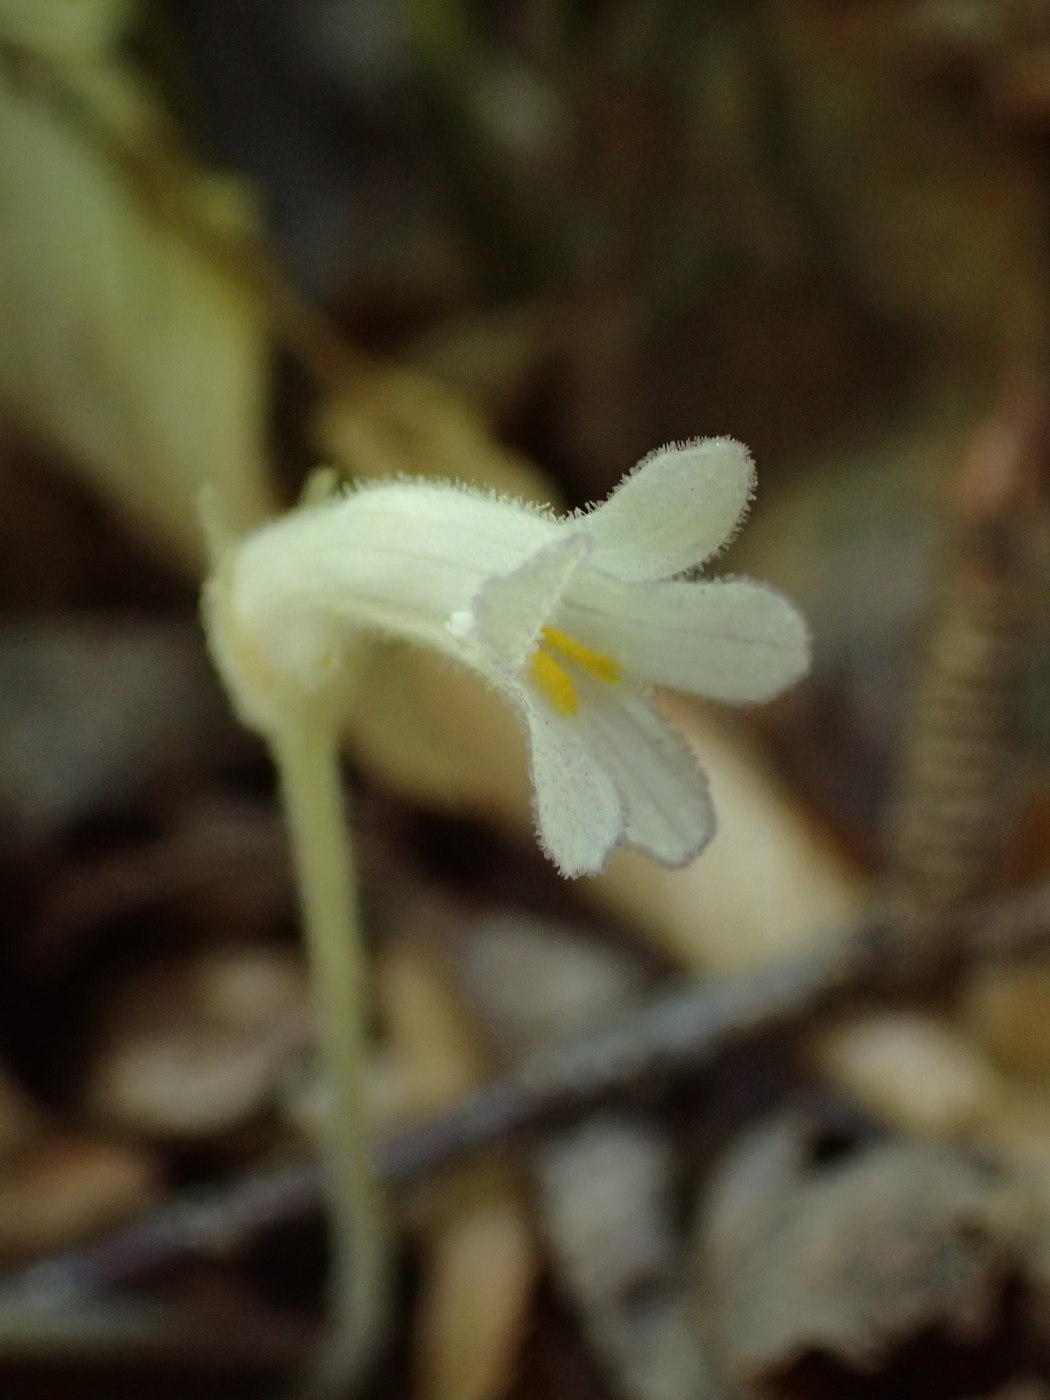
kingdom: Plantae
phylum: Tracheophyta
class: Magnoliopsida
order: Lamiales
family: Orobanchaceae
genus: Aphyllon
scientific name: Aphyllon uniflorum
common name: One-flowered broomrape
